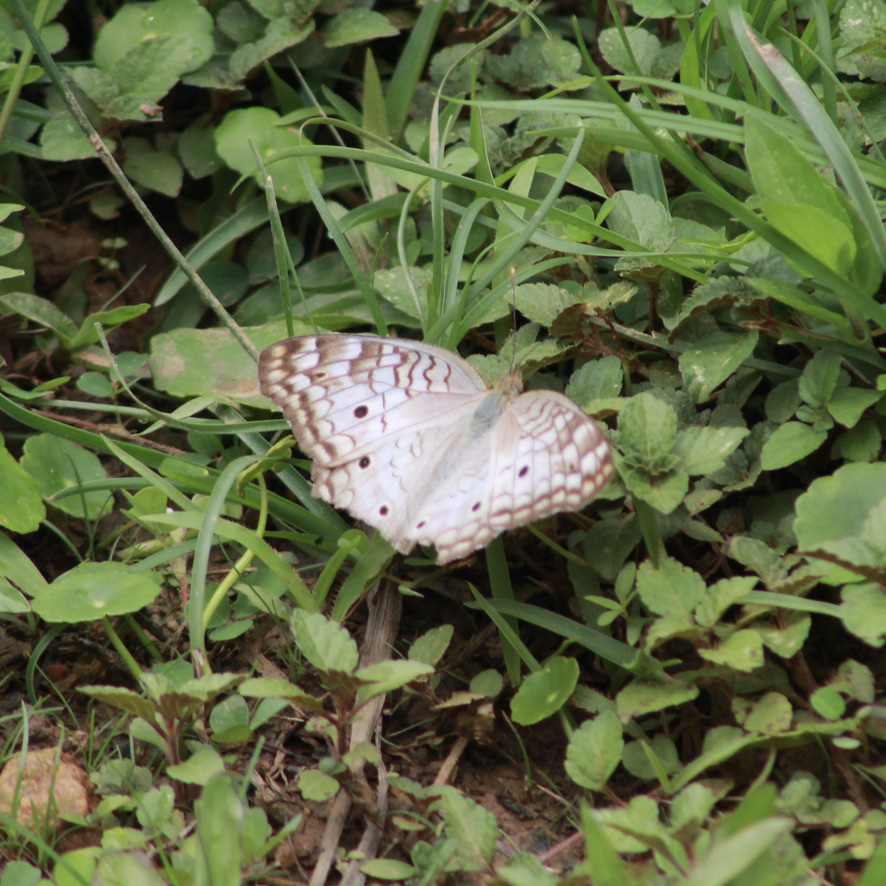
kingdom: Animalia
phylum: Arthropoda
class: Insecta
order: Lepidoptera
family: Nymphalidae
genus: Anartia
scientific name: Anartia jatrophae
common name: White peacock
